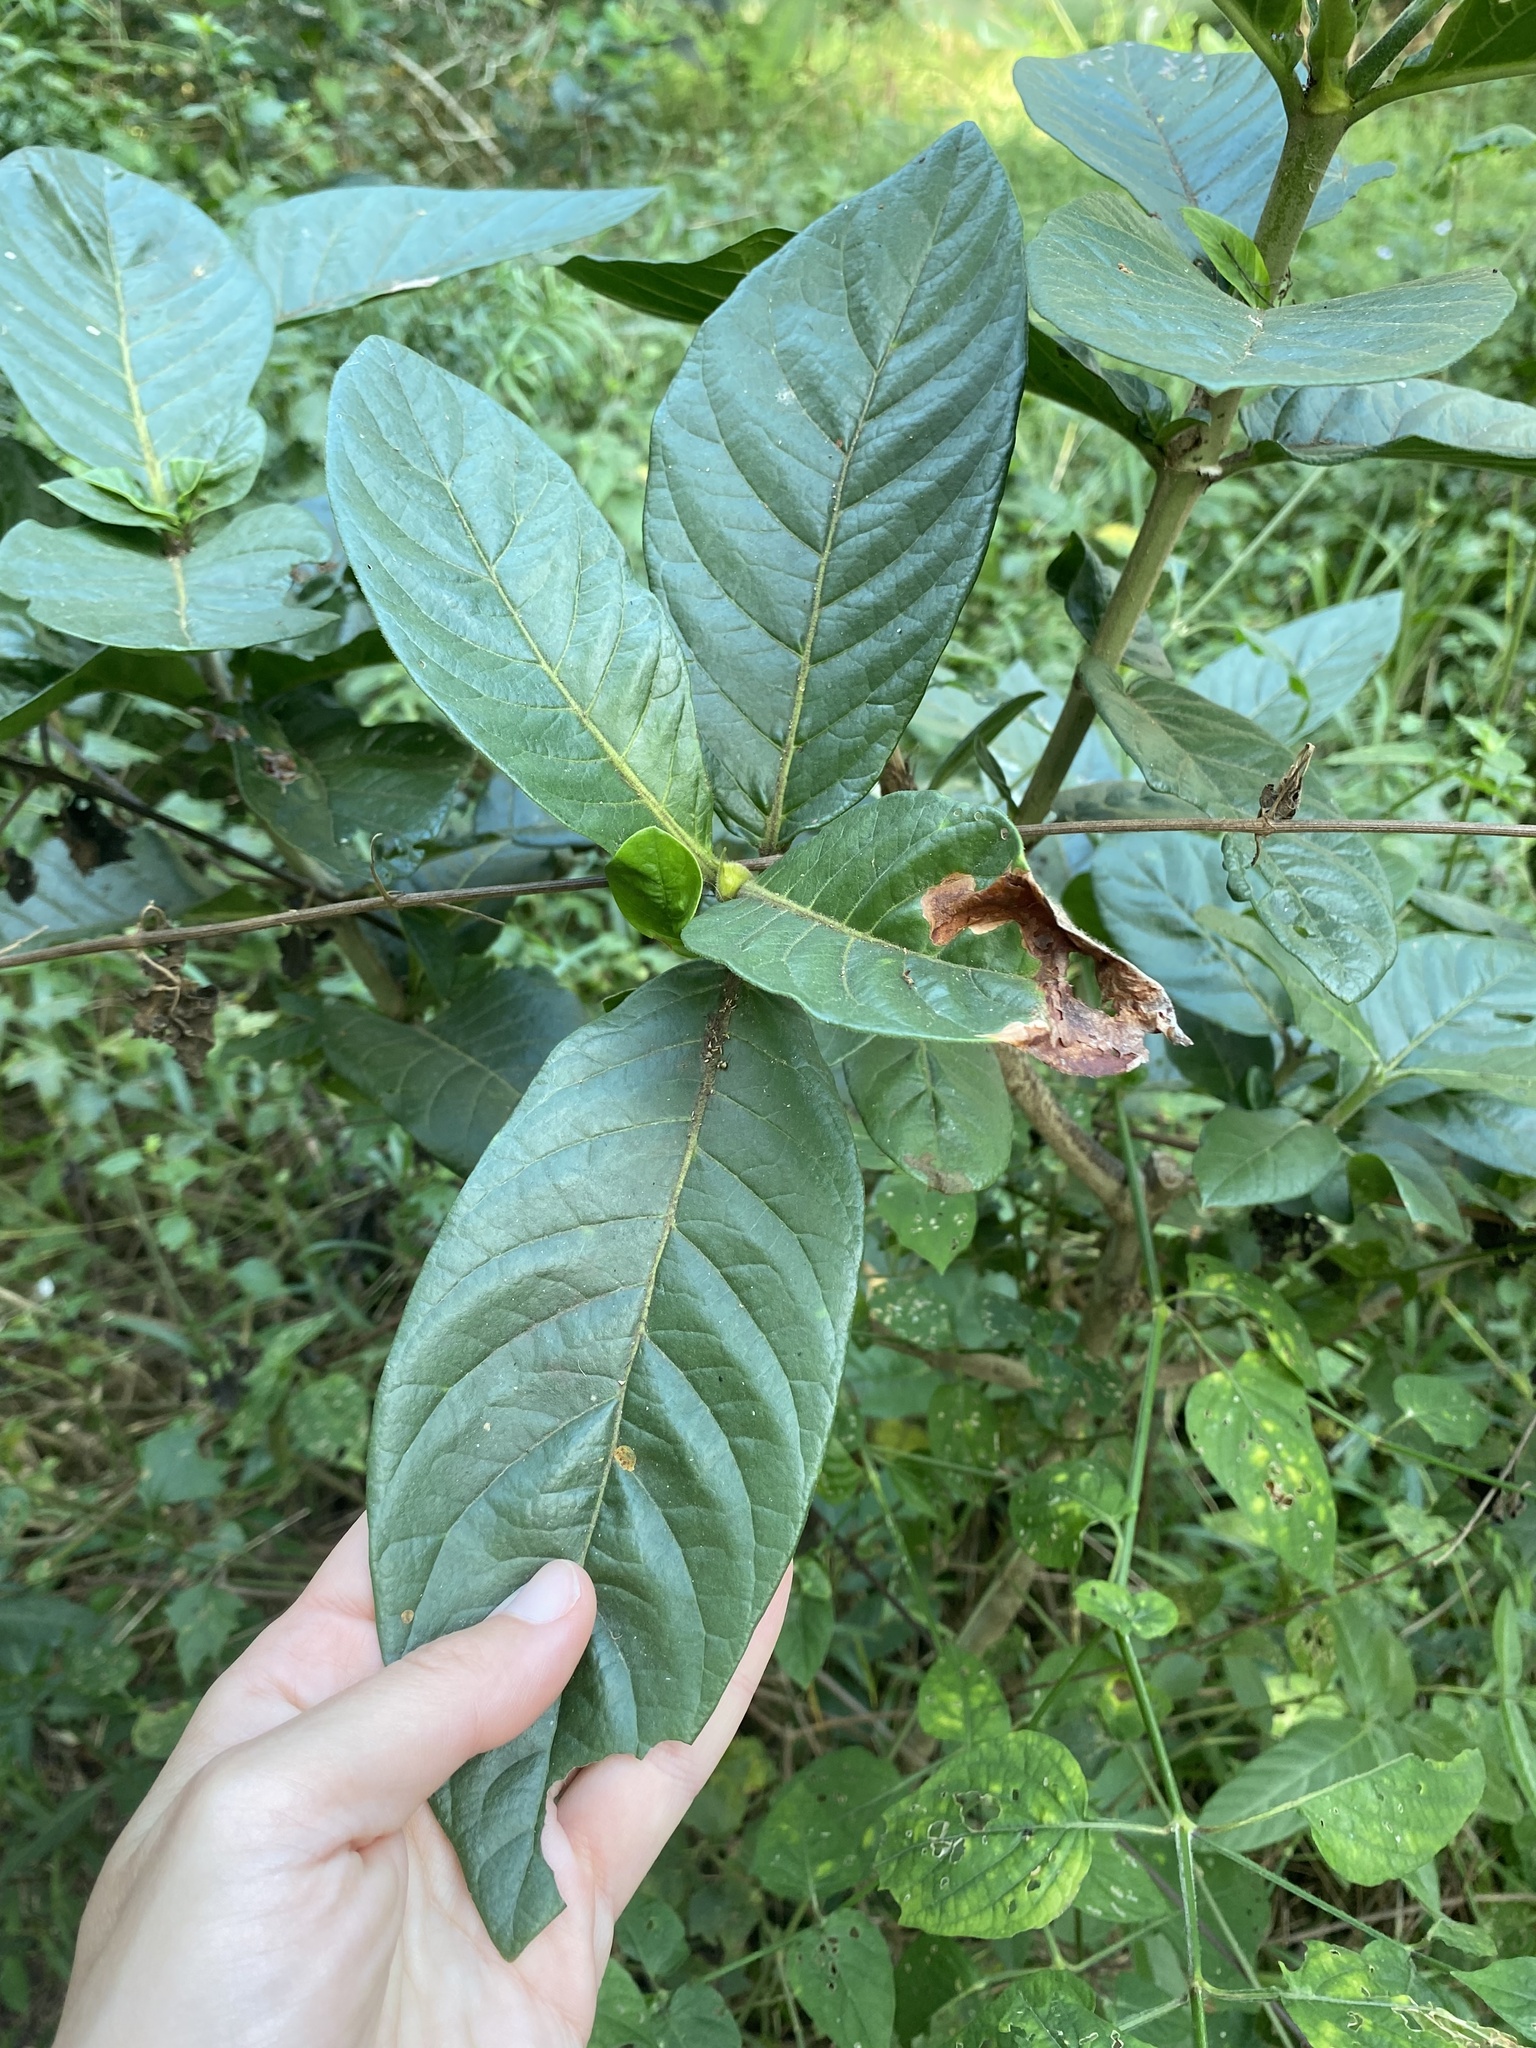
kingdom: Plantae
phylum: Tracheophyta
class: Magnoliopsida
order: Gentianales
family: Rubiaceae
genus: Burchellia
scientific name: Burchellia bubalina
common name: Wild pomegranate
